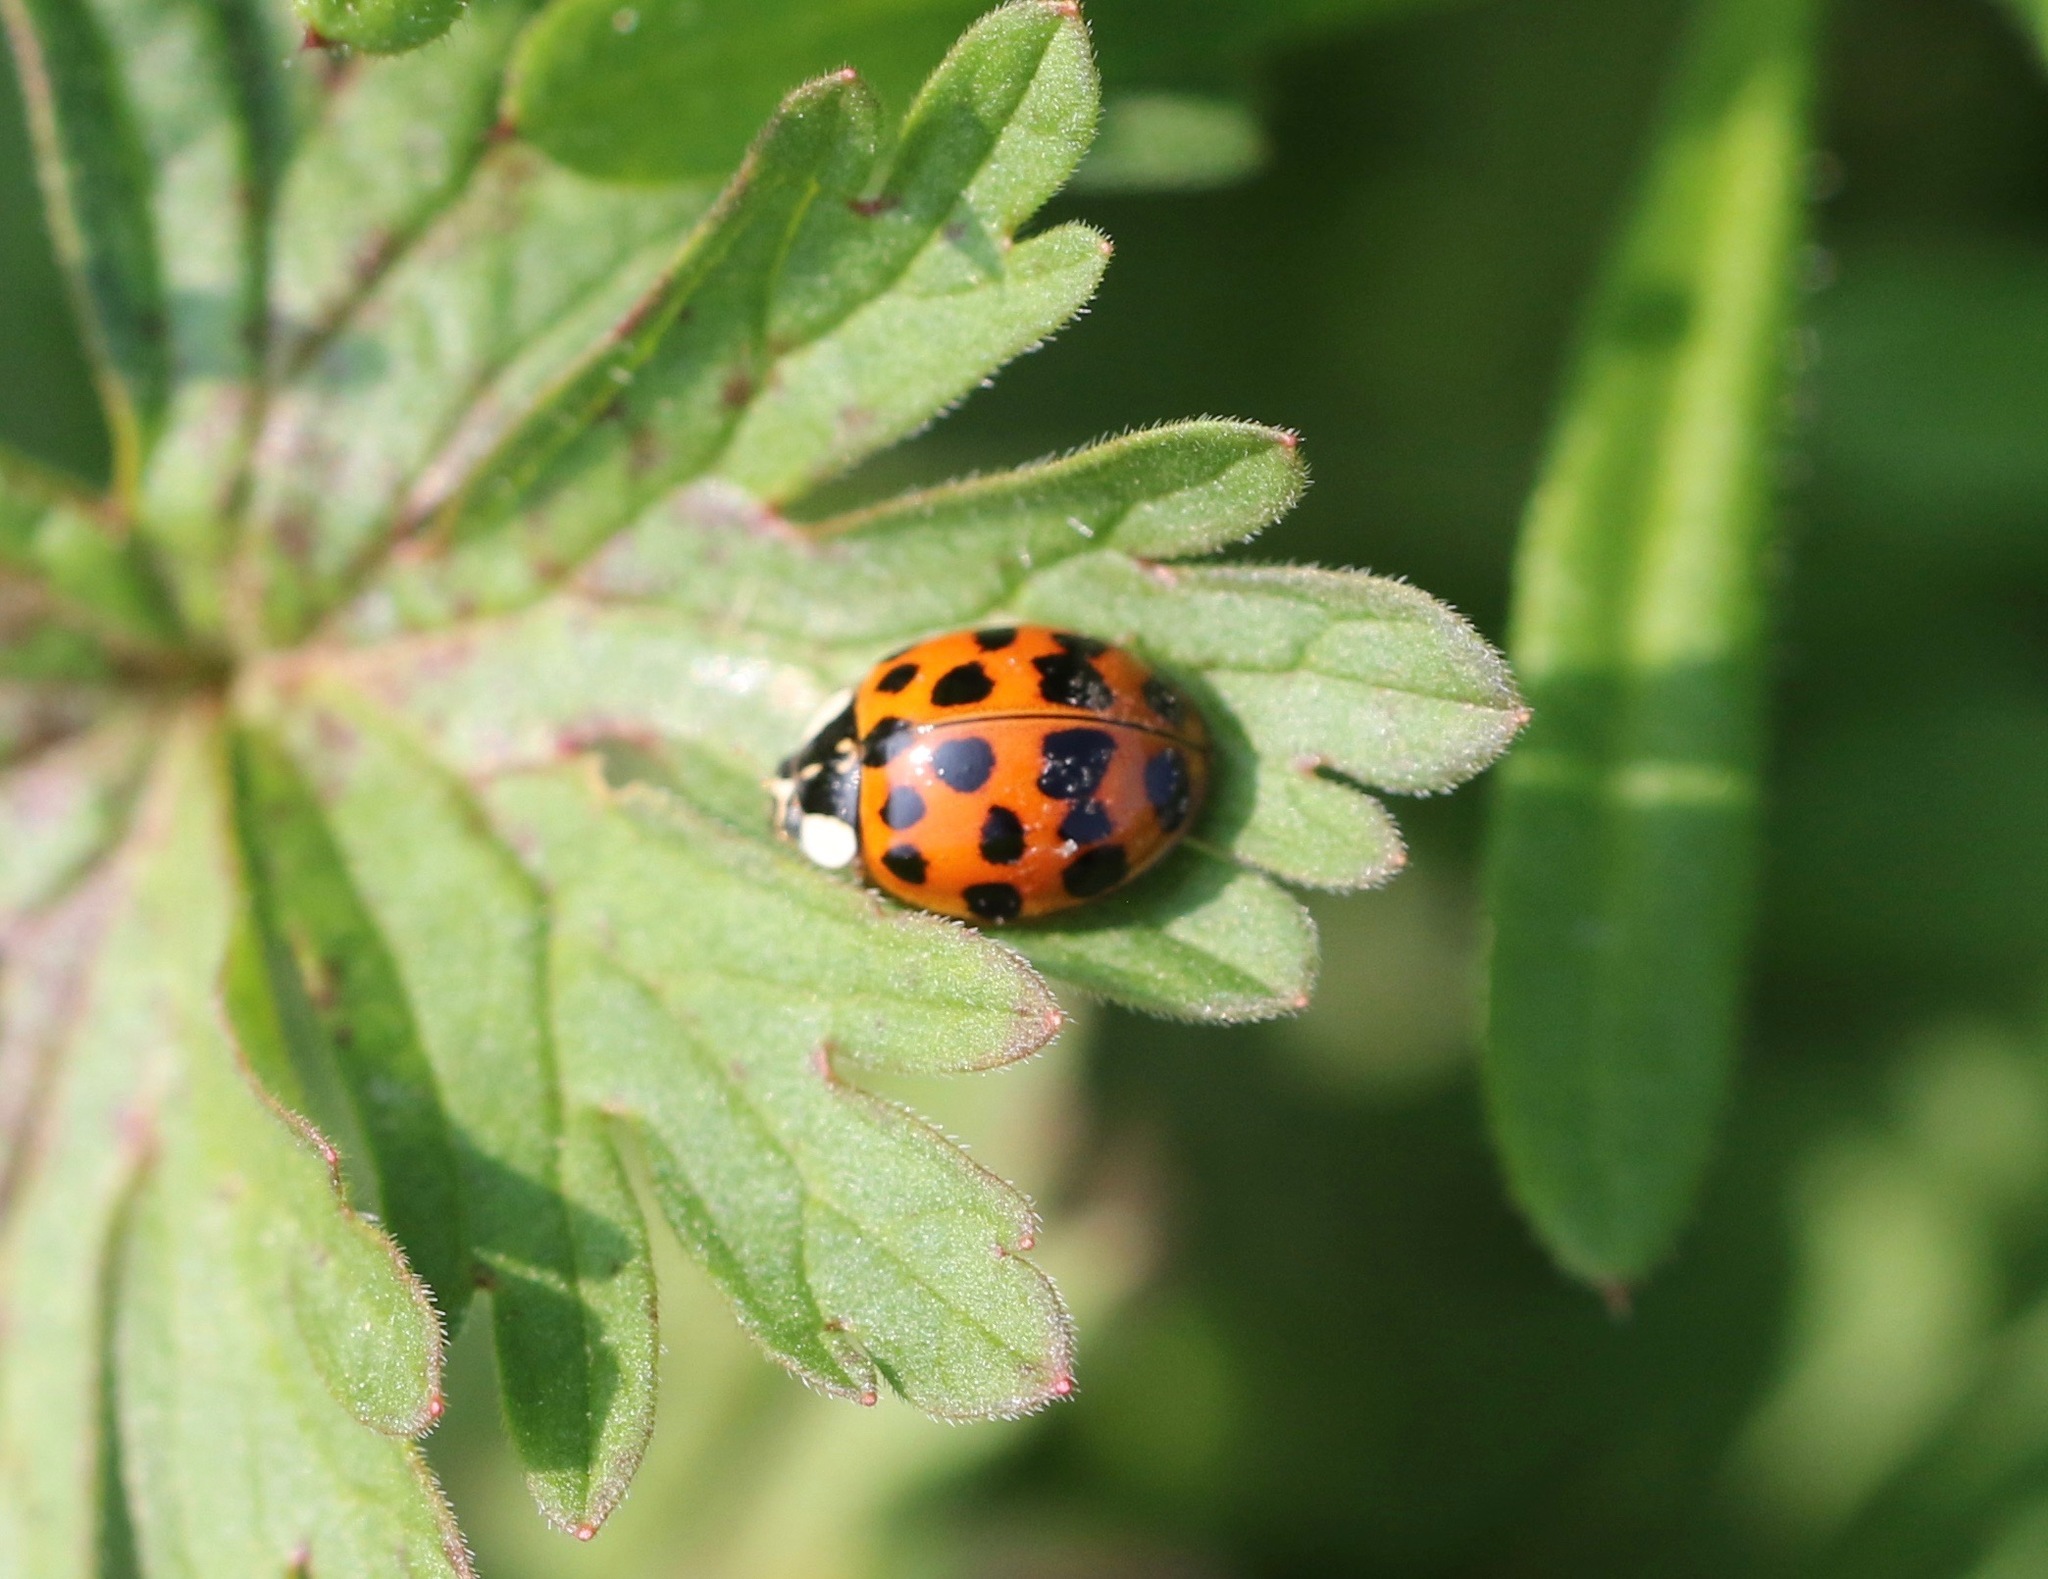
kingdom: Animalia
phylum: Arthropoda
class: Insecta
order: Coleoptera
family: Coccinellidae
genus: Harmonia
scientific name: Harmonia axyridis
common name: Harlequin ladybird
